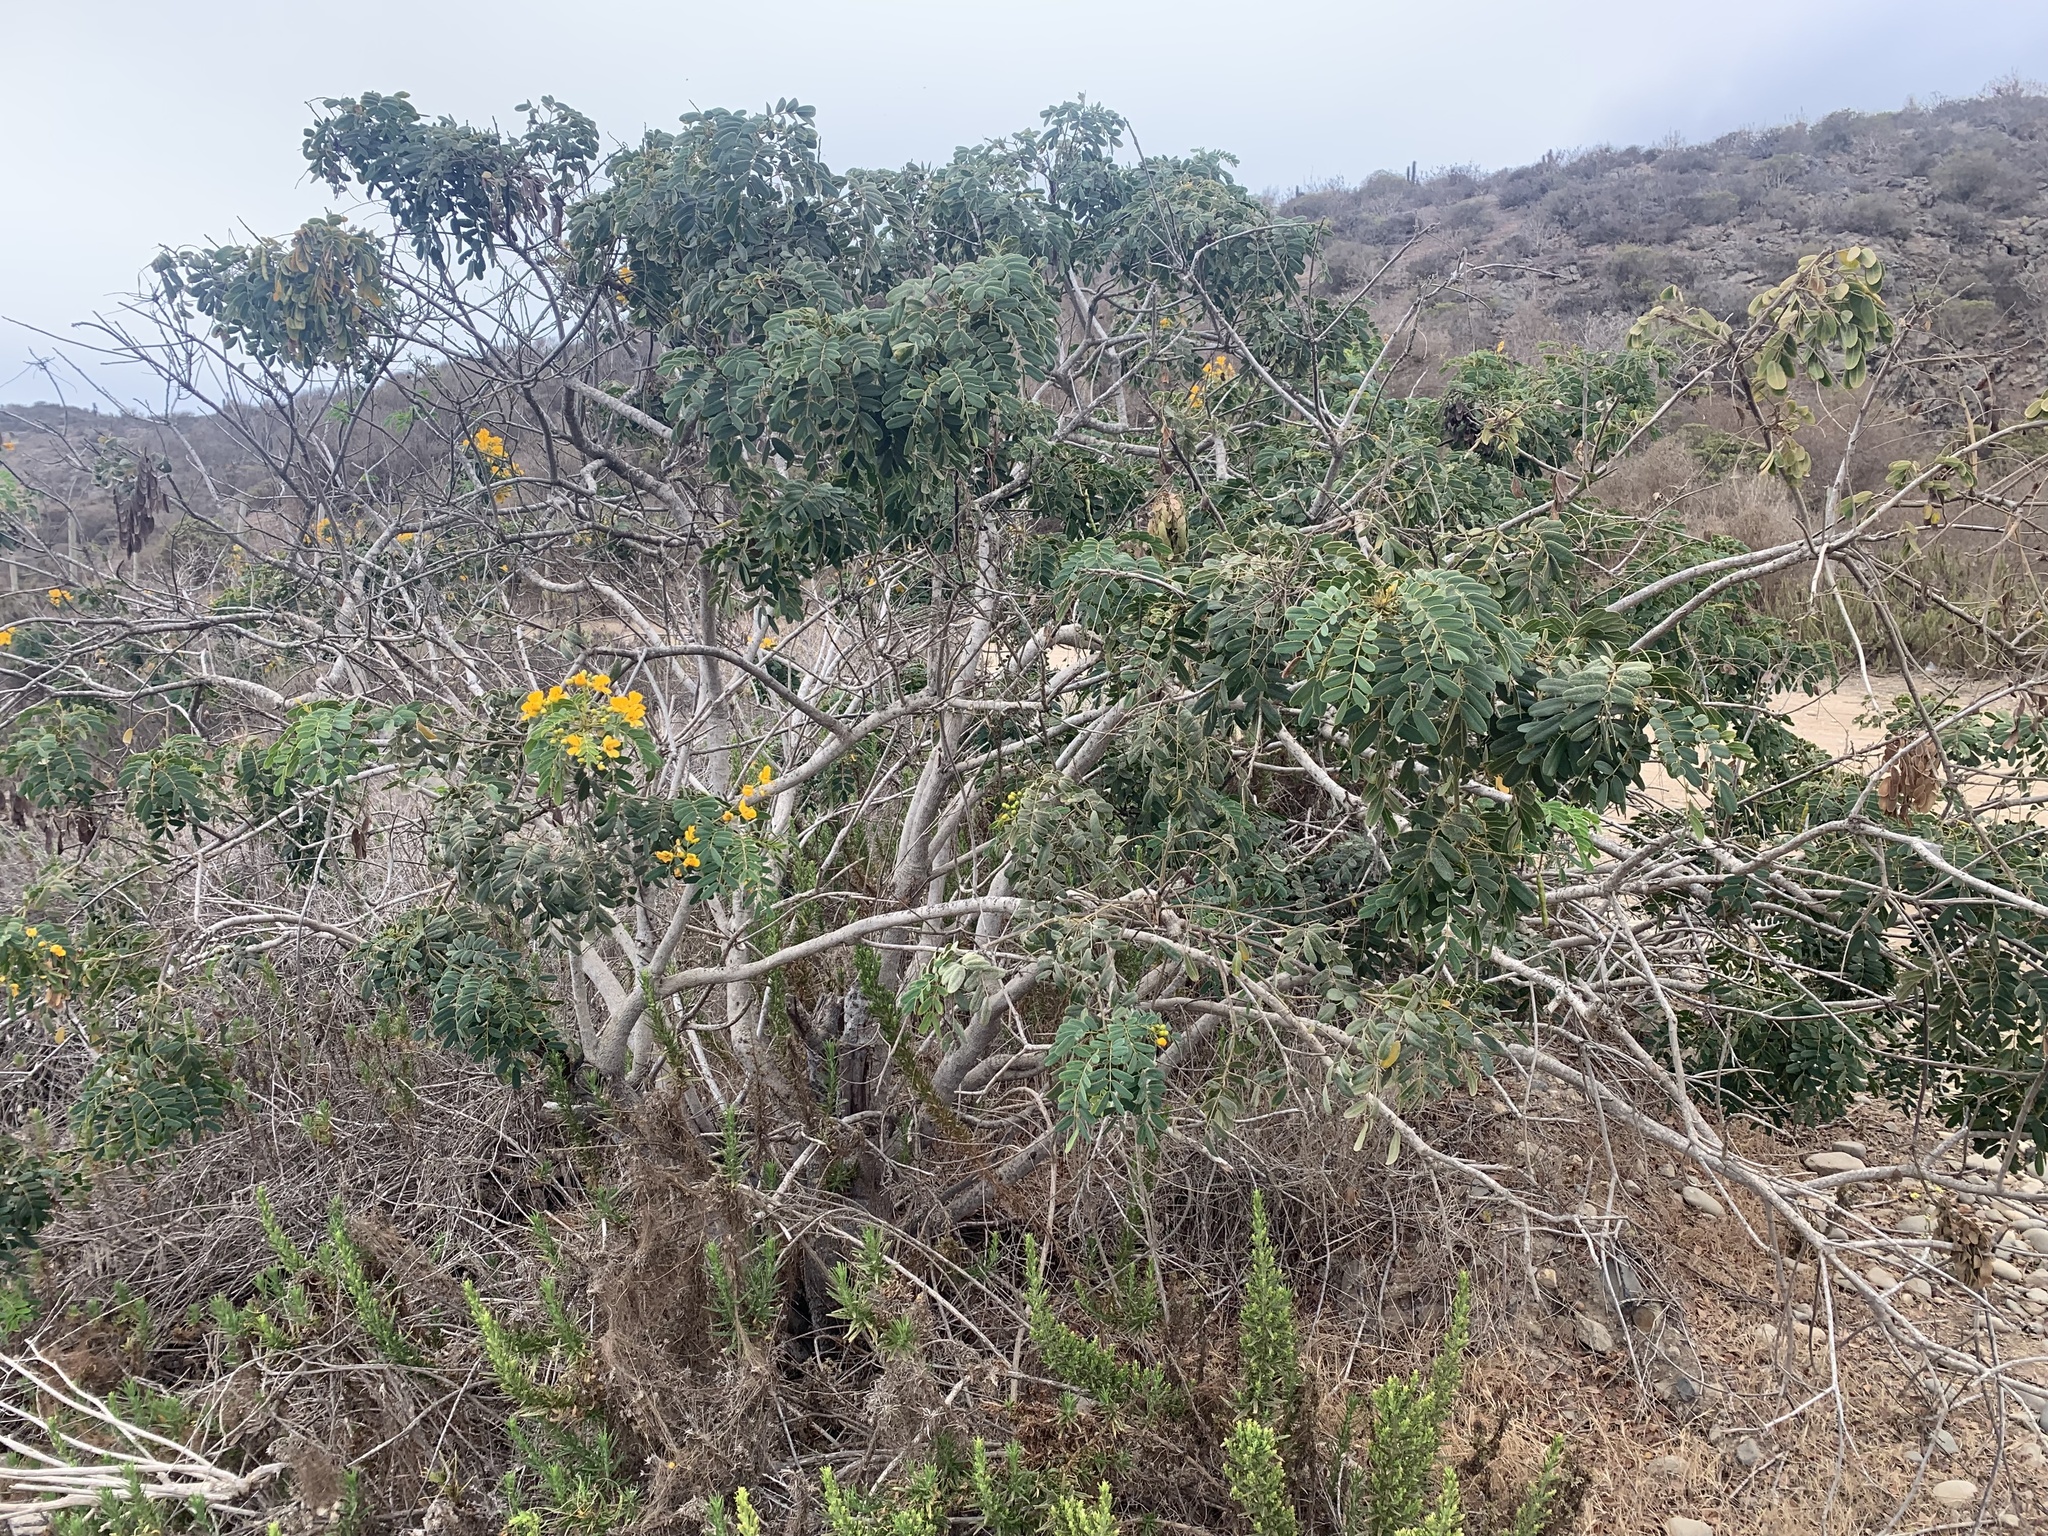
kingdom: Plantae
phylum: Tracheophyta
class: Magnoliopsida
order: Fabales
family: Fabaceae
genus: Senna
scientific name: Senna candolleana
